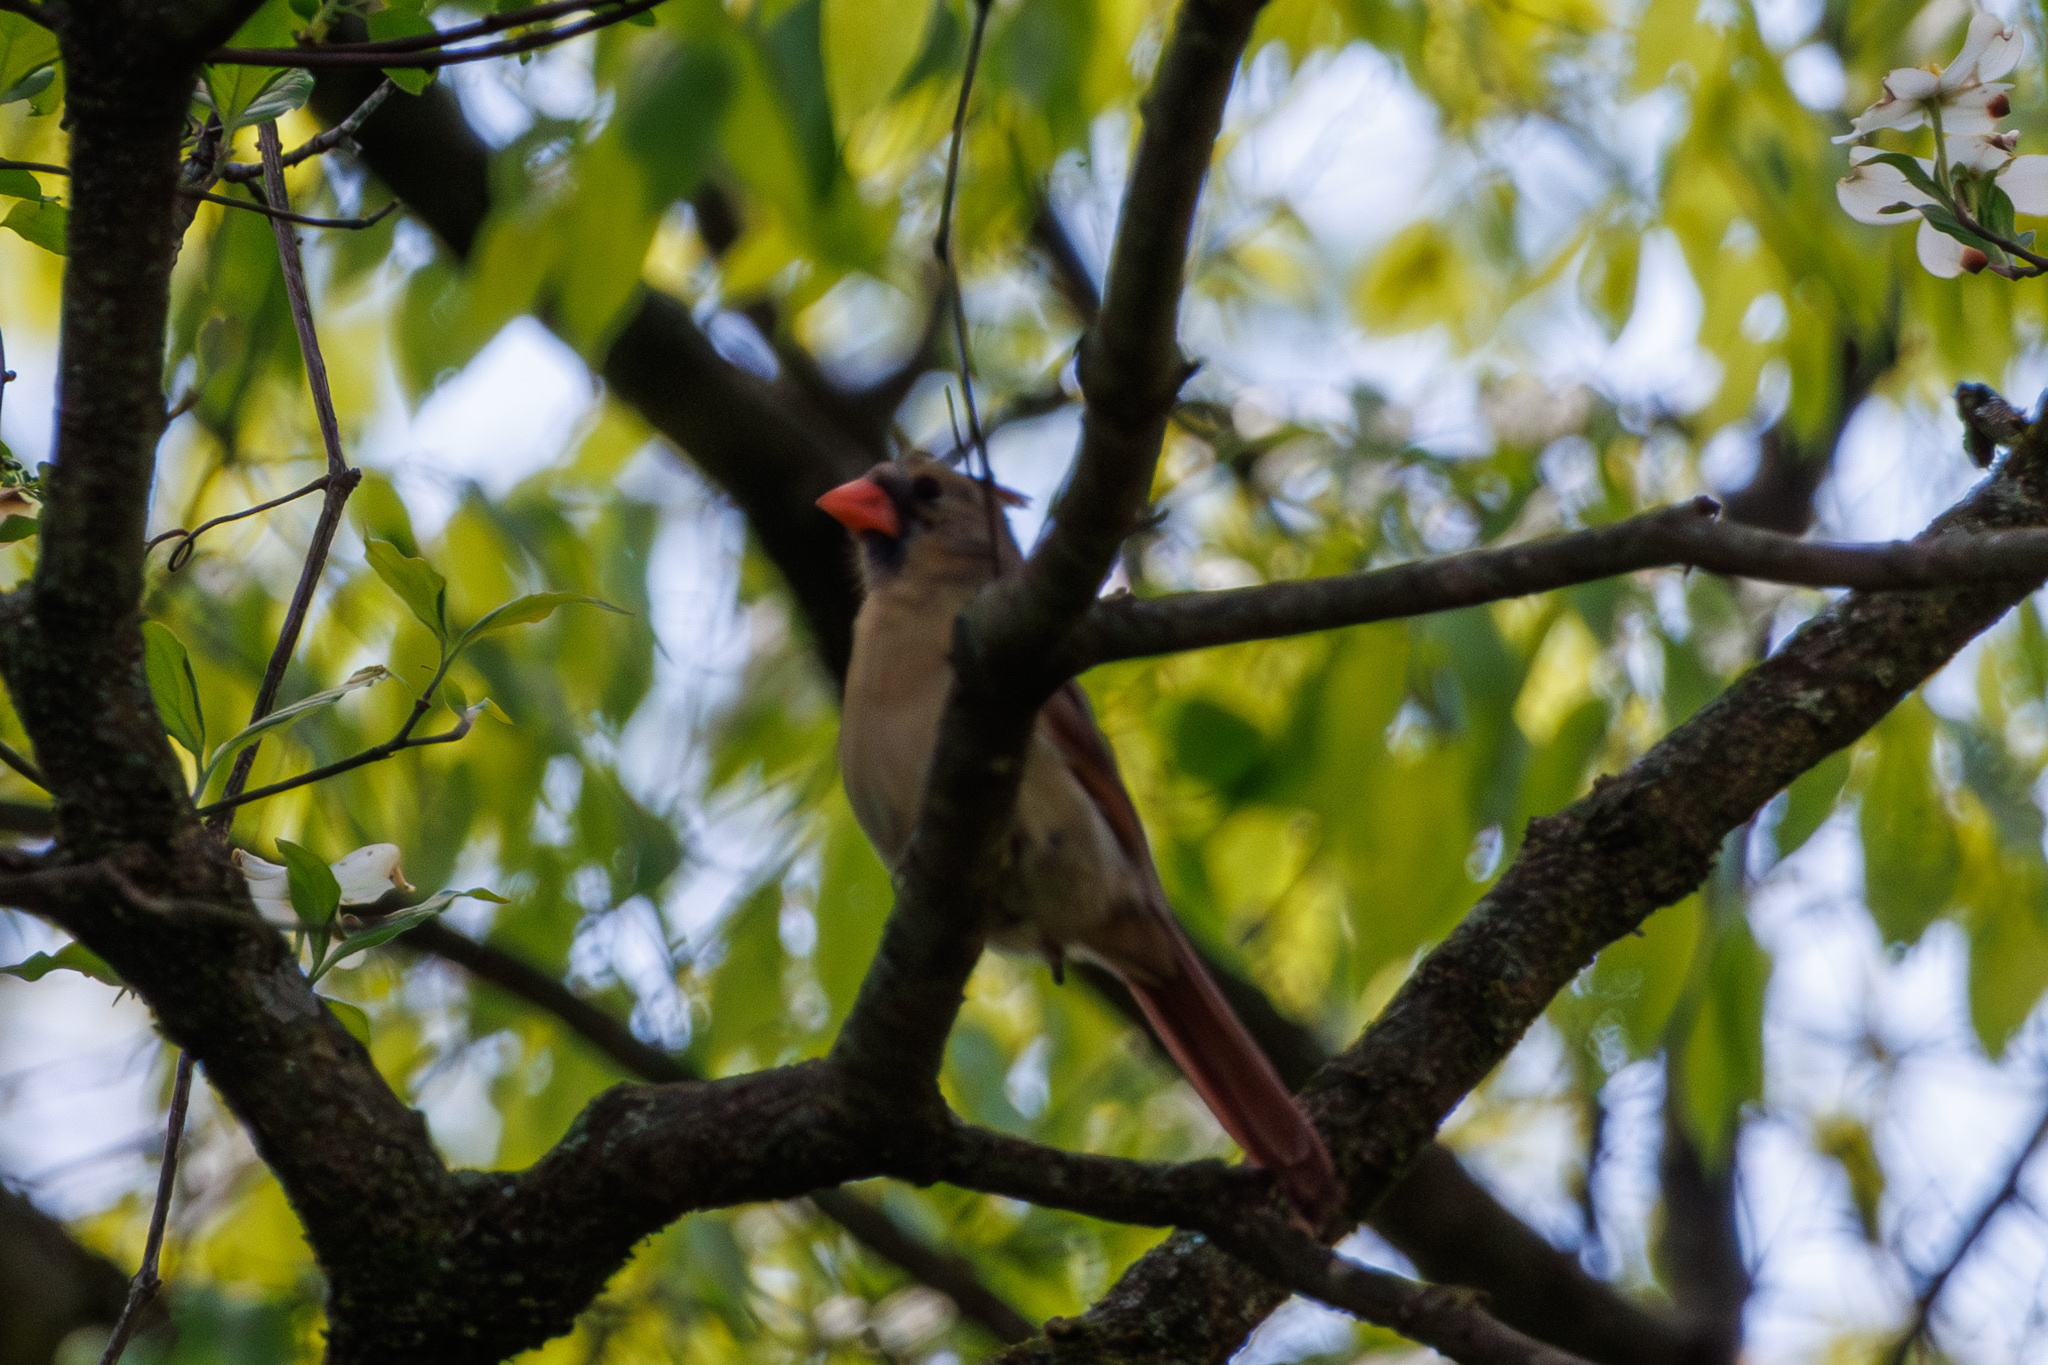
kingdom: Animalia
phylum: Chordata
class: Aves
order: Passeriformes
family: Cardinalidae
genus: Cardinalis
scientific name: Cardinalis cardinalis
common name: Northern cardinal
